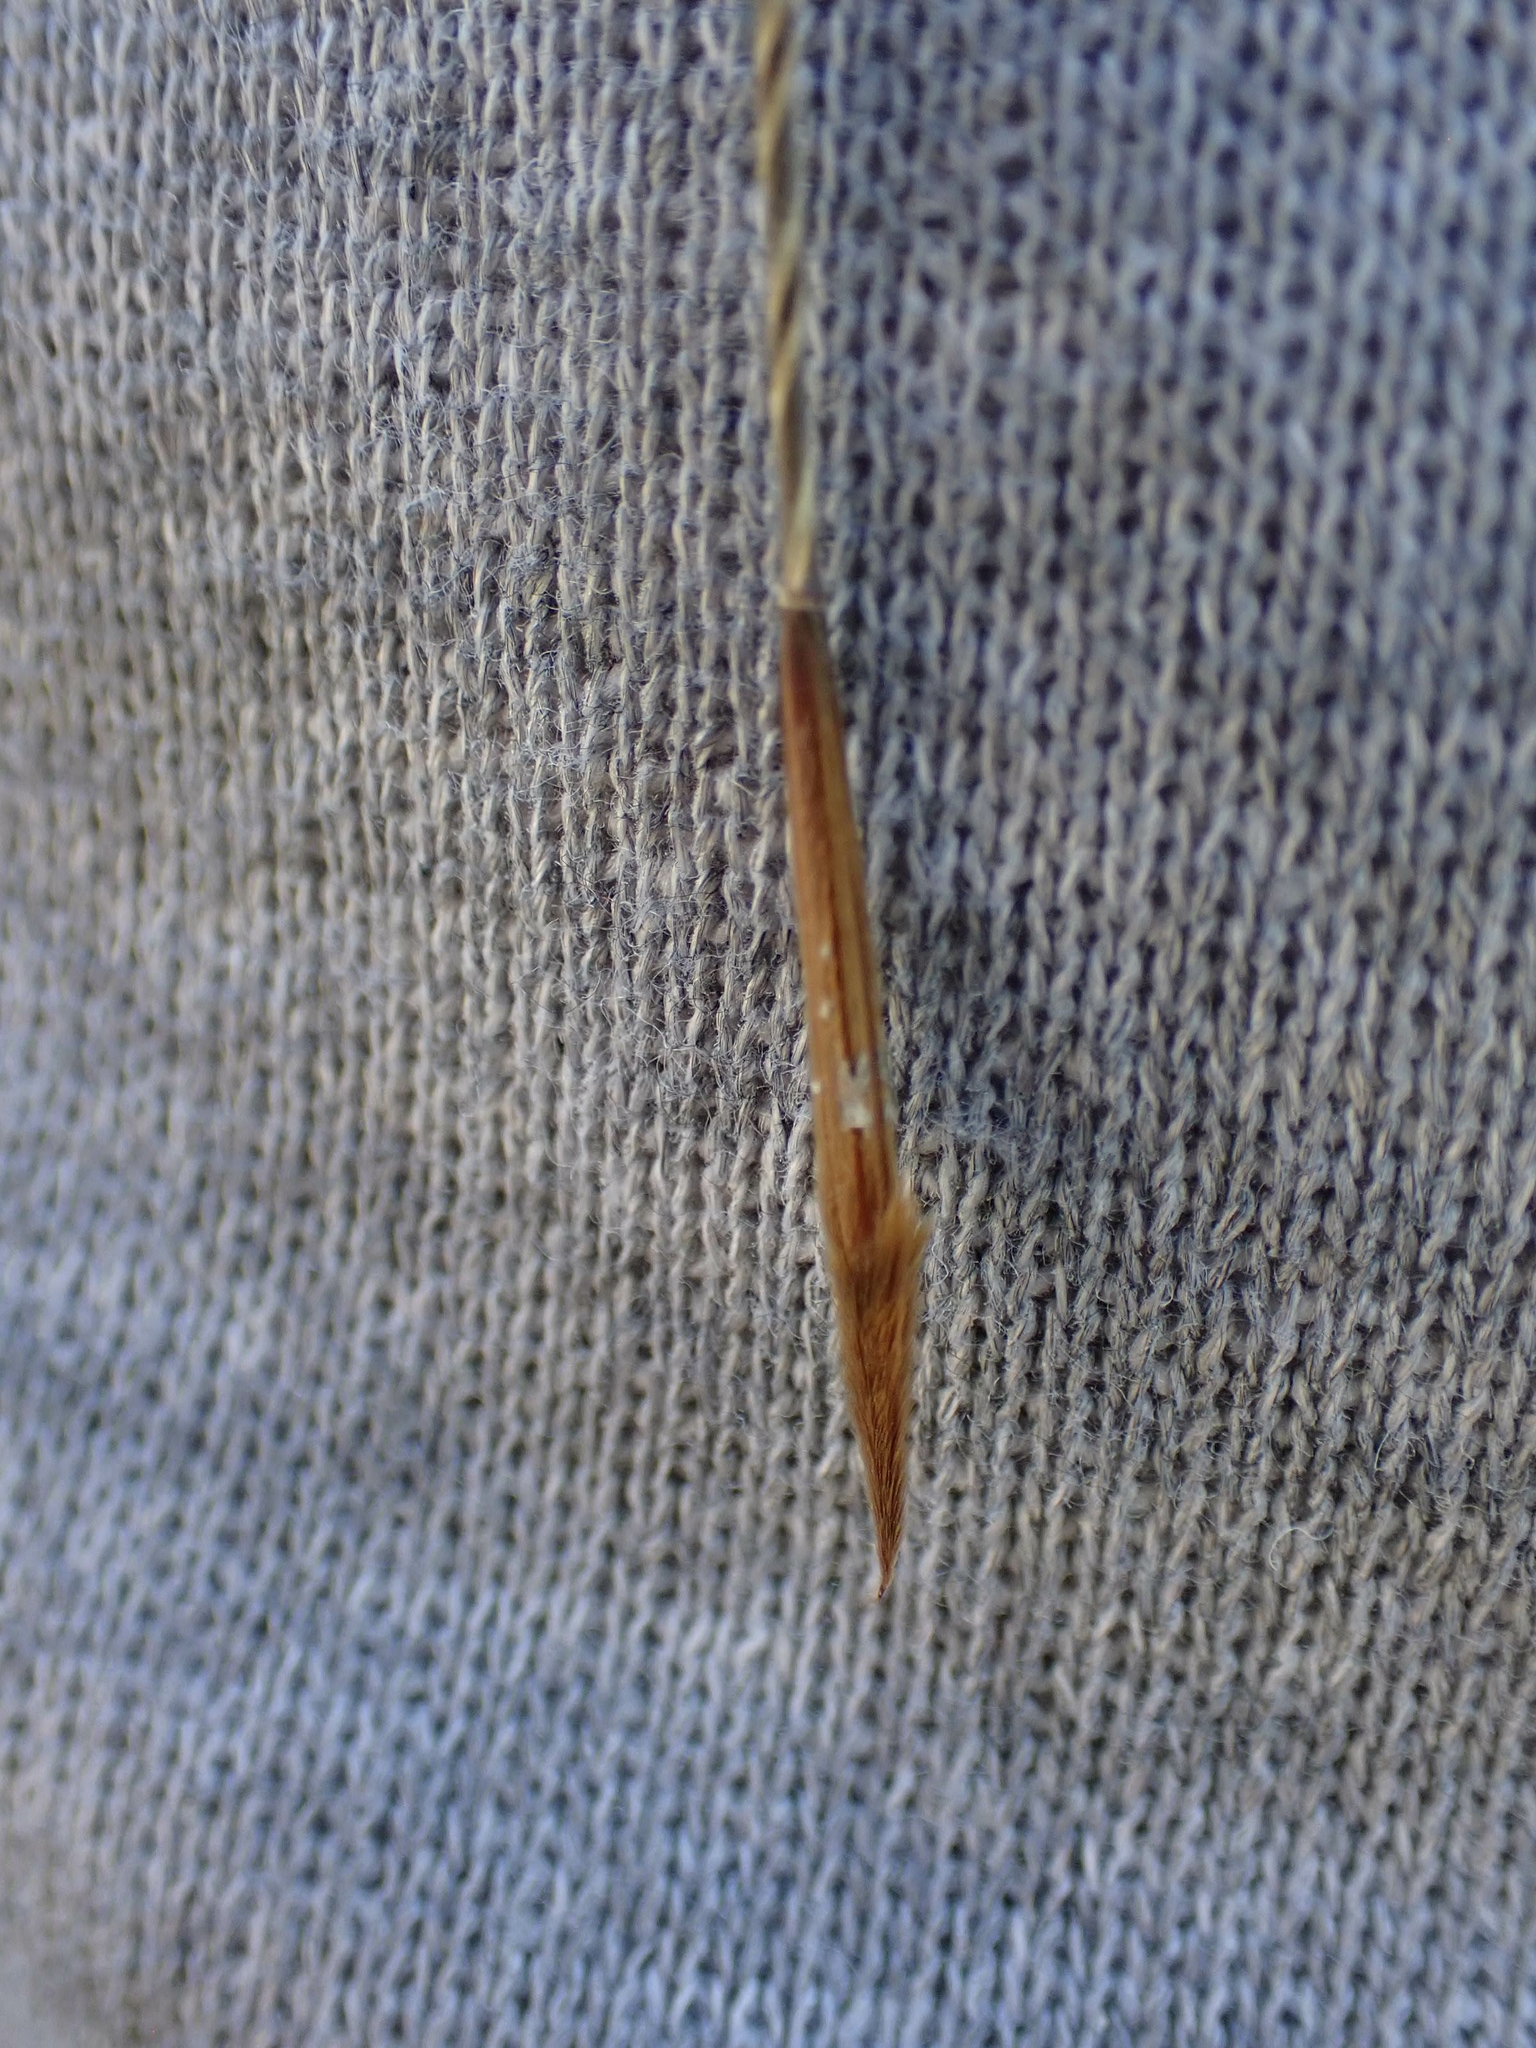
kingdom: Plantae
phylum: Tracheophyta
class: Liliopsida
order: Poales
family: Poaceae
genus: Hesperostipa
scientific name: Hesperostipa spartea
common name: Porcupine grass
